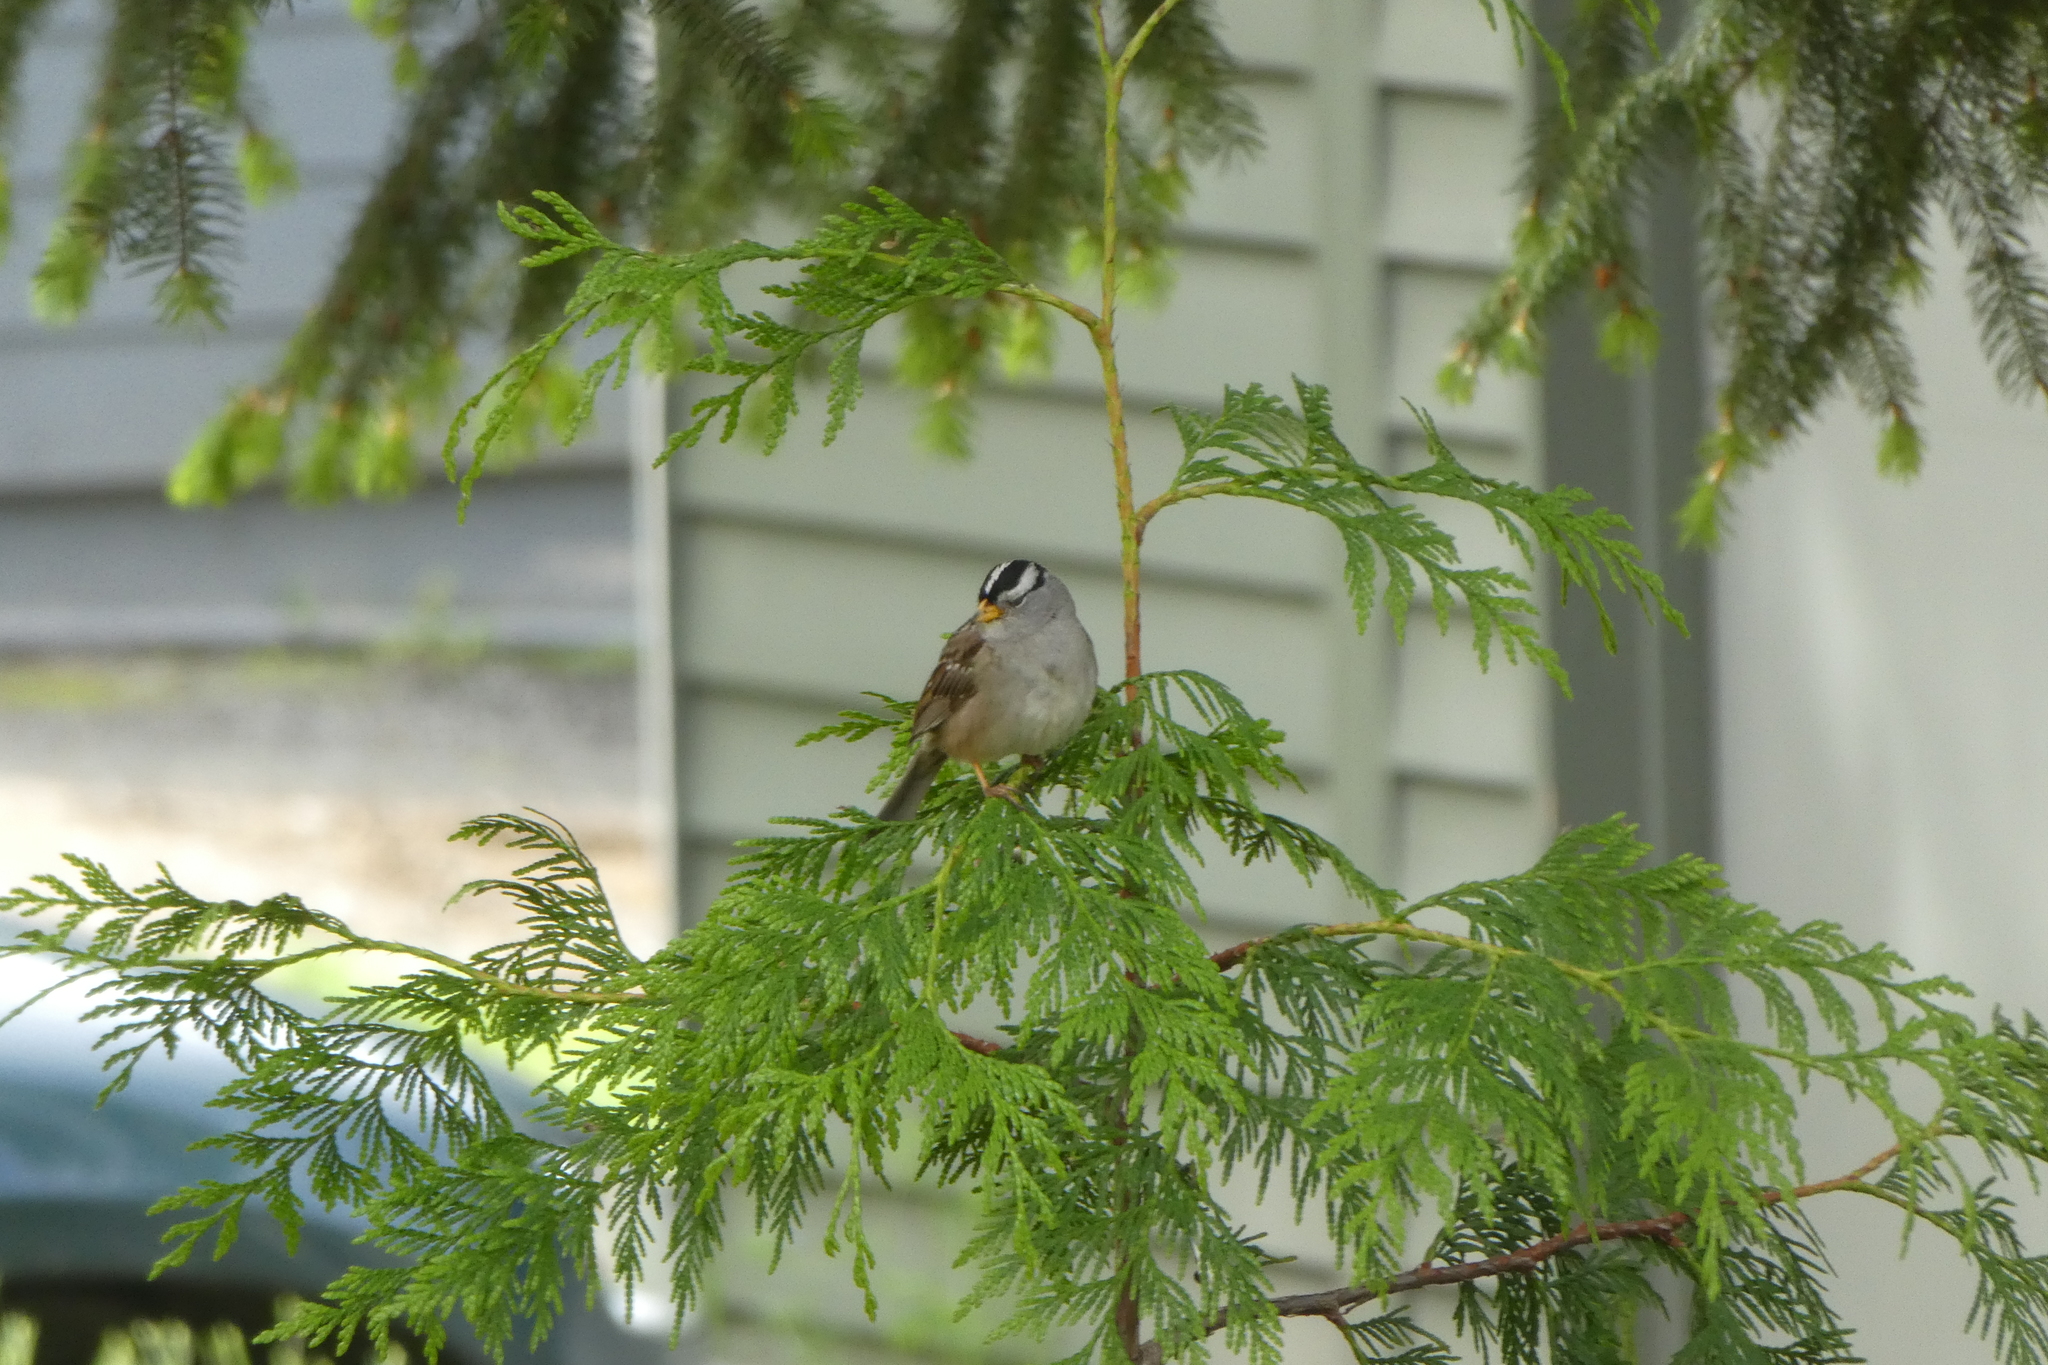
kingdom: Animalia
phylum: Chordata
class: Aves
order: Passeriformes
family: Passerellidae
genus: Zonotrichia
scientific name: Zonotrichia leucophrys
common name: White-crowned sparrow
